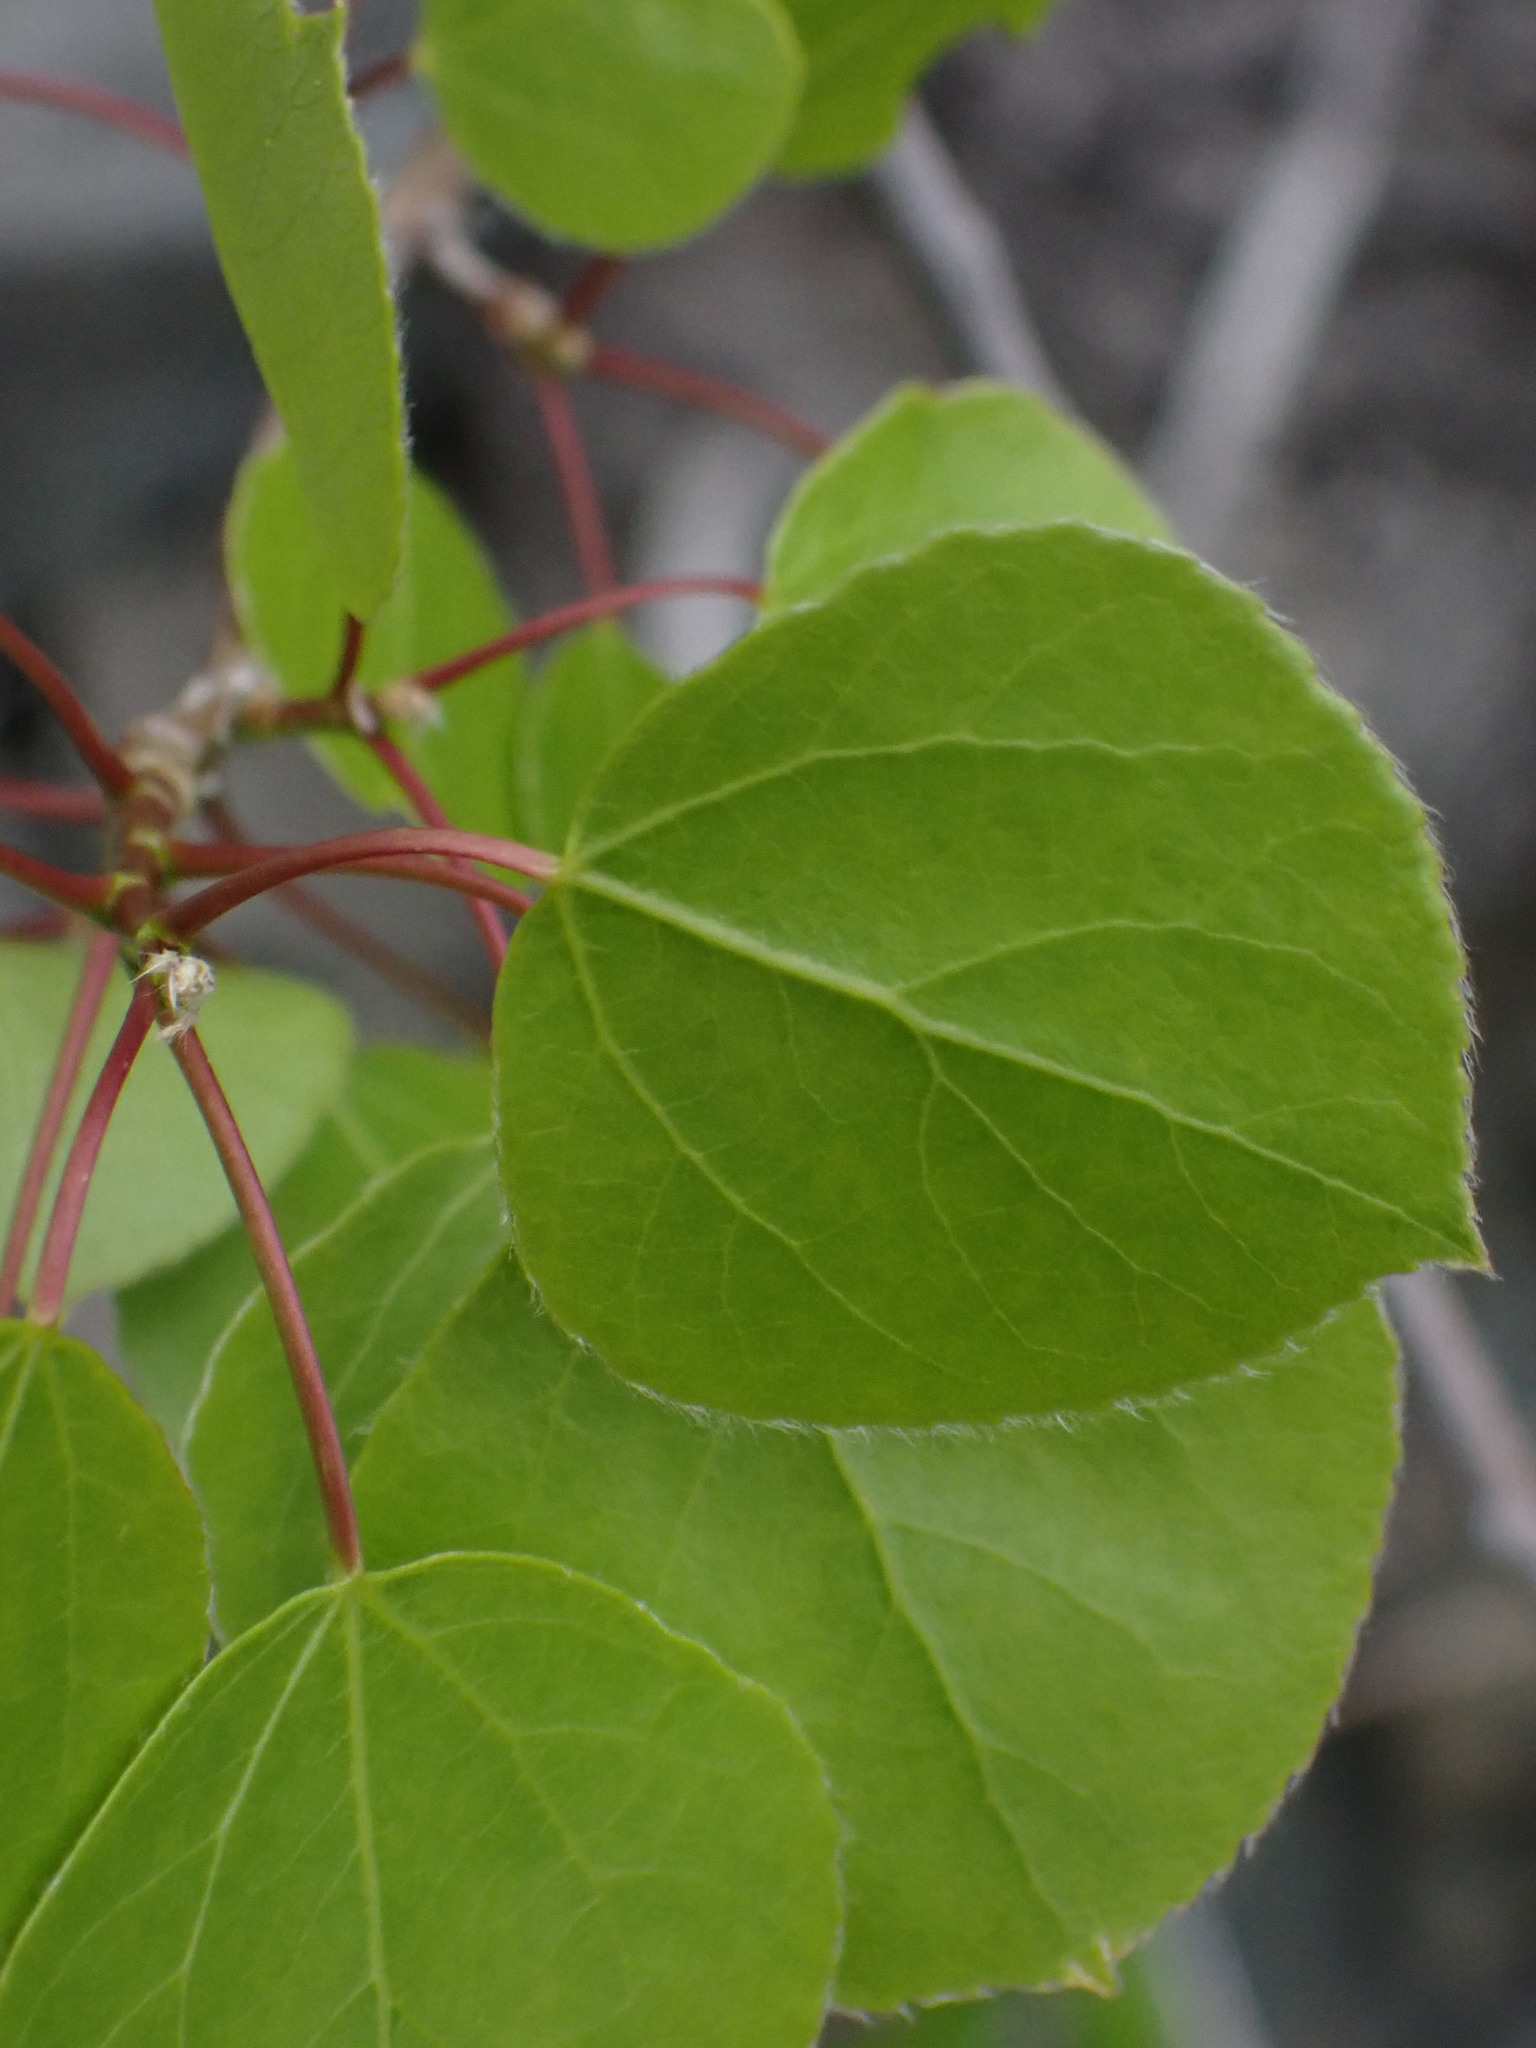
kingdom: Plantae
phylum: Tracheophyta
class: Magnoliopsida
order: Malpighiales
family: Salicaceae
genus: Populus
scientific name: Populus tremuloides
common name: Quaking aspen
